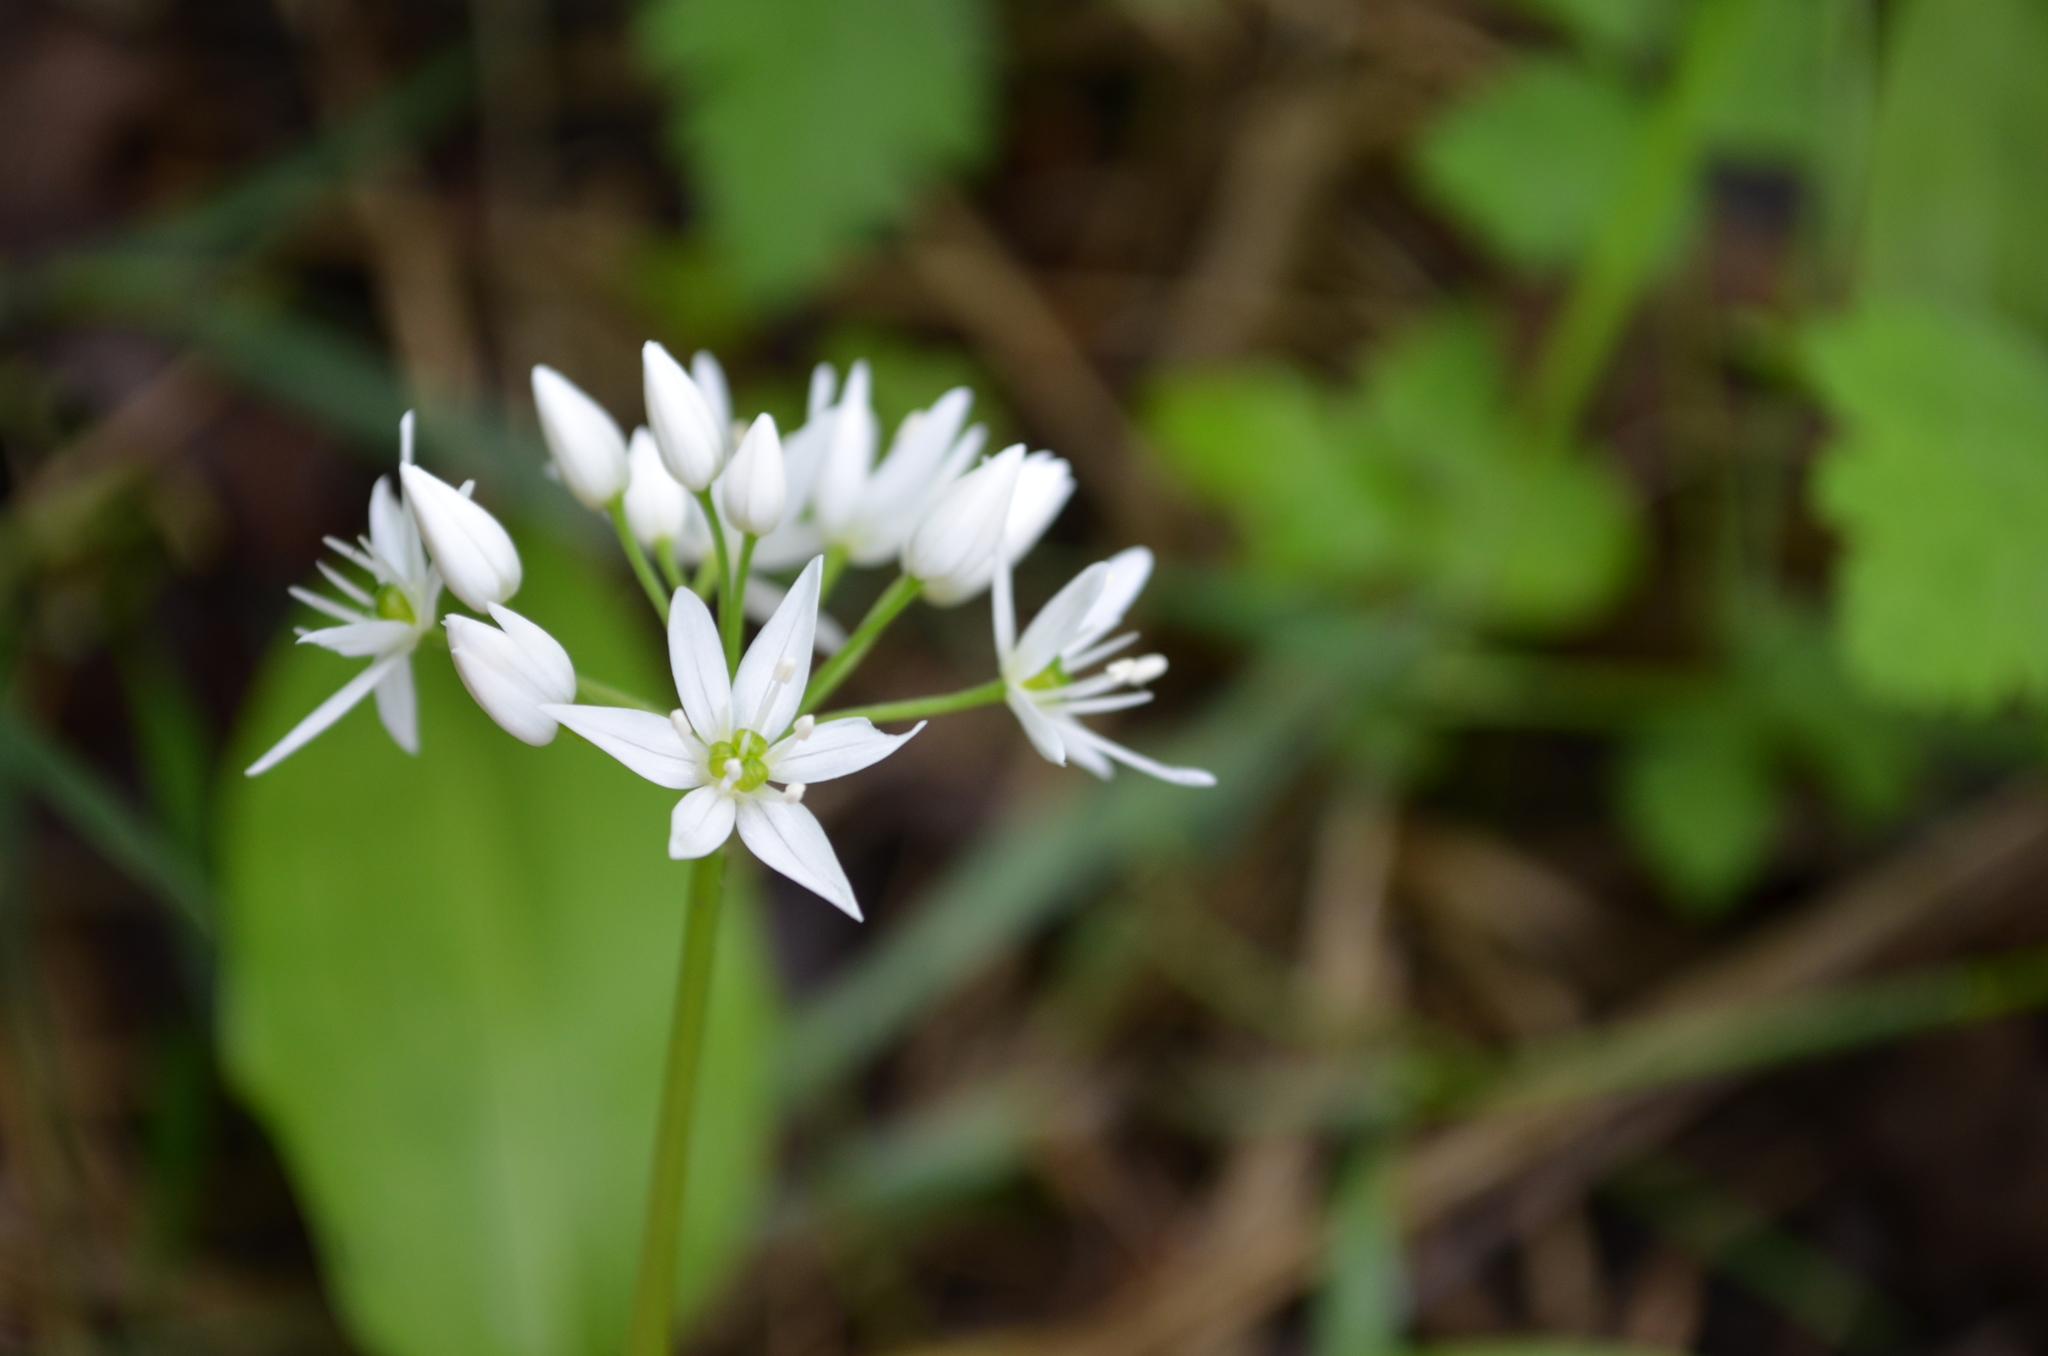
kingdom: Plantae
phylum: Tracheophyta
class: Liliopsida
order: Asparagales
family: Amaryllidaceae
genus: Allium
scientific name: Allium ursinum
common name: Ramsons
